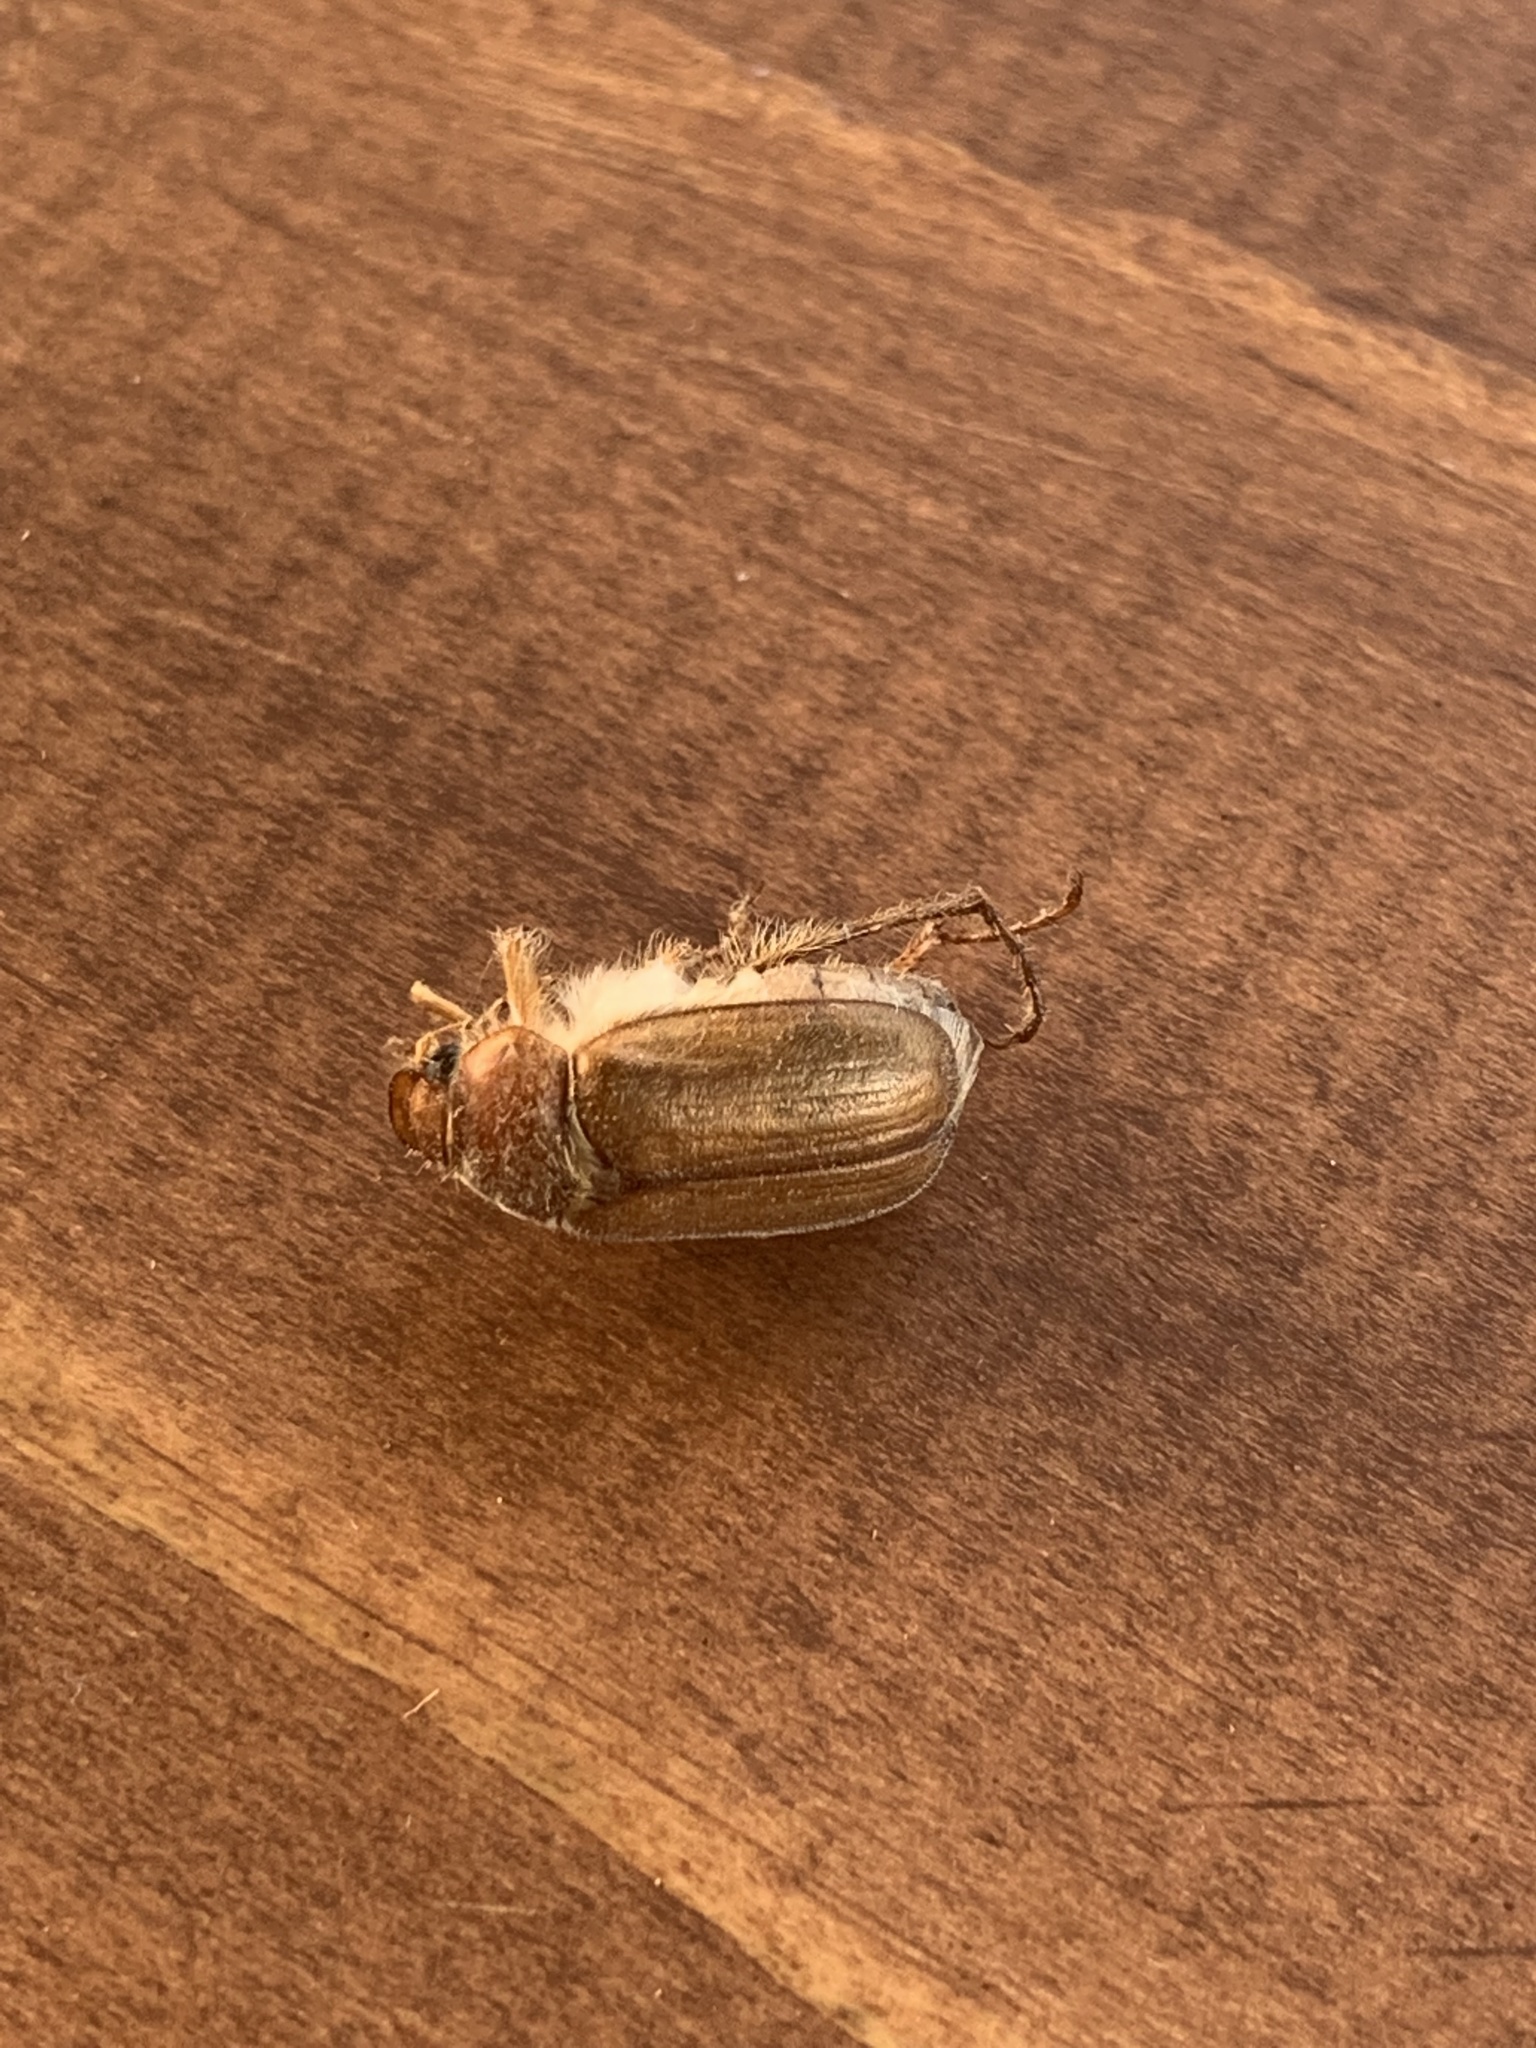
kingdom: Animalia
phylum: Arthropoda
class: Insecta
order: Coleoptera
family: Scarabaeidae
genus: Amphimallon
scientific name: Amphimallon majale
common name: European chafer
